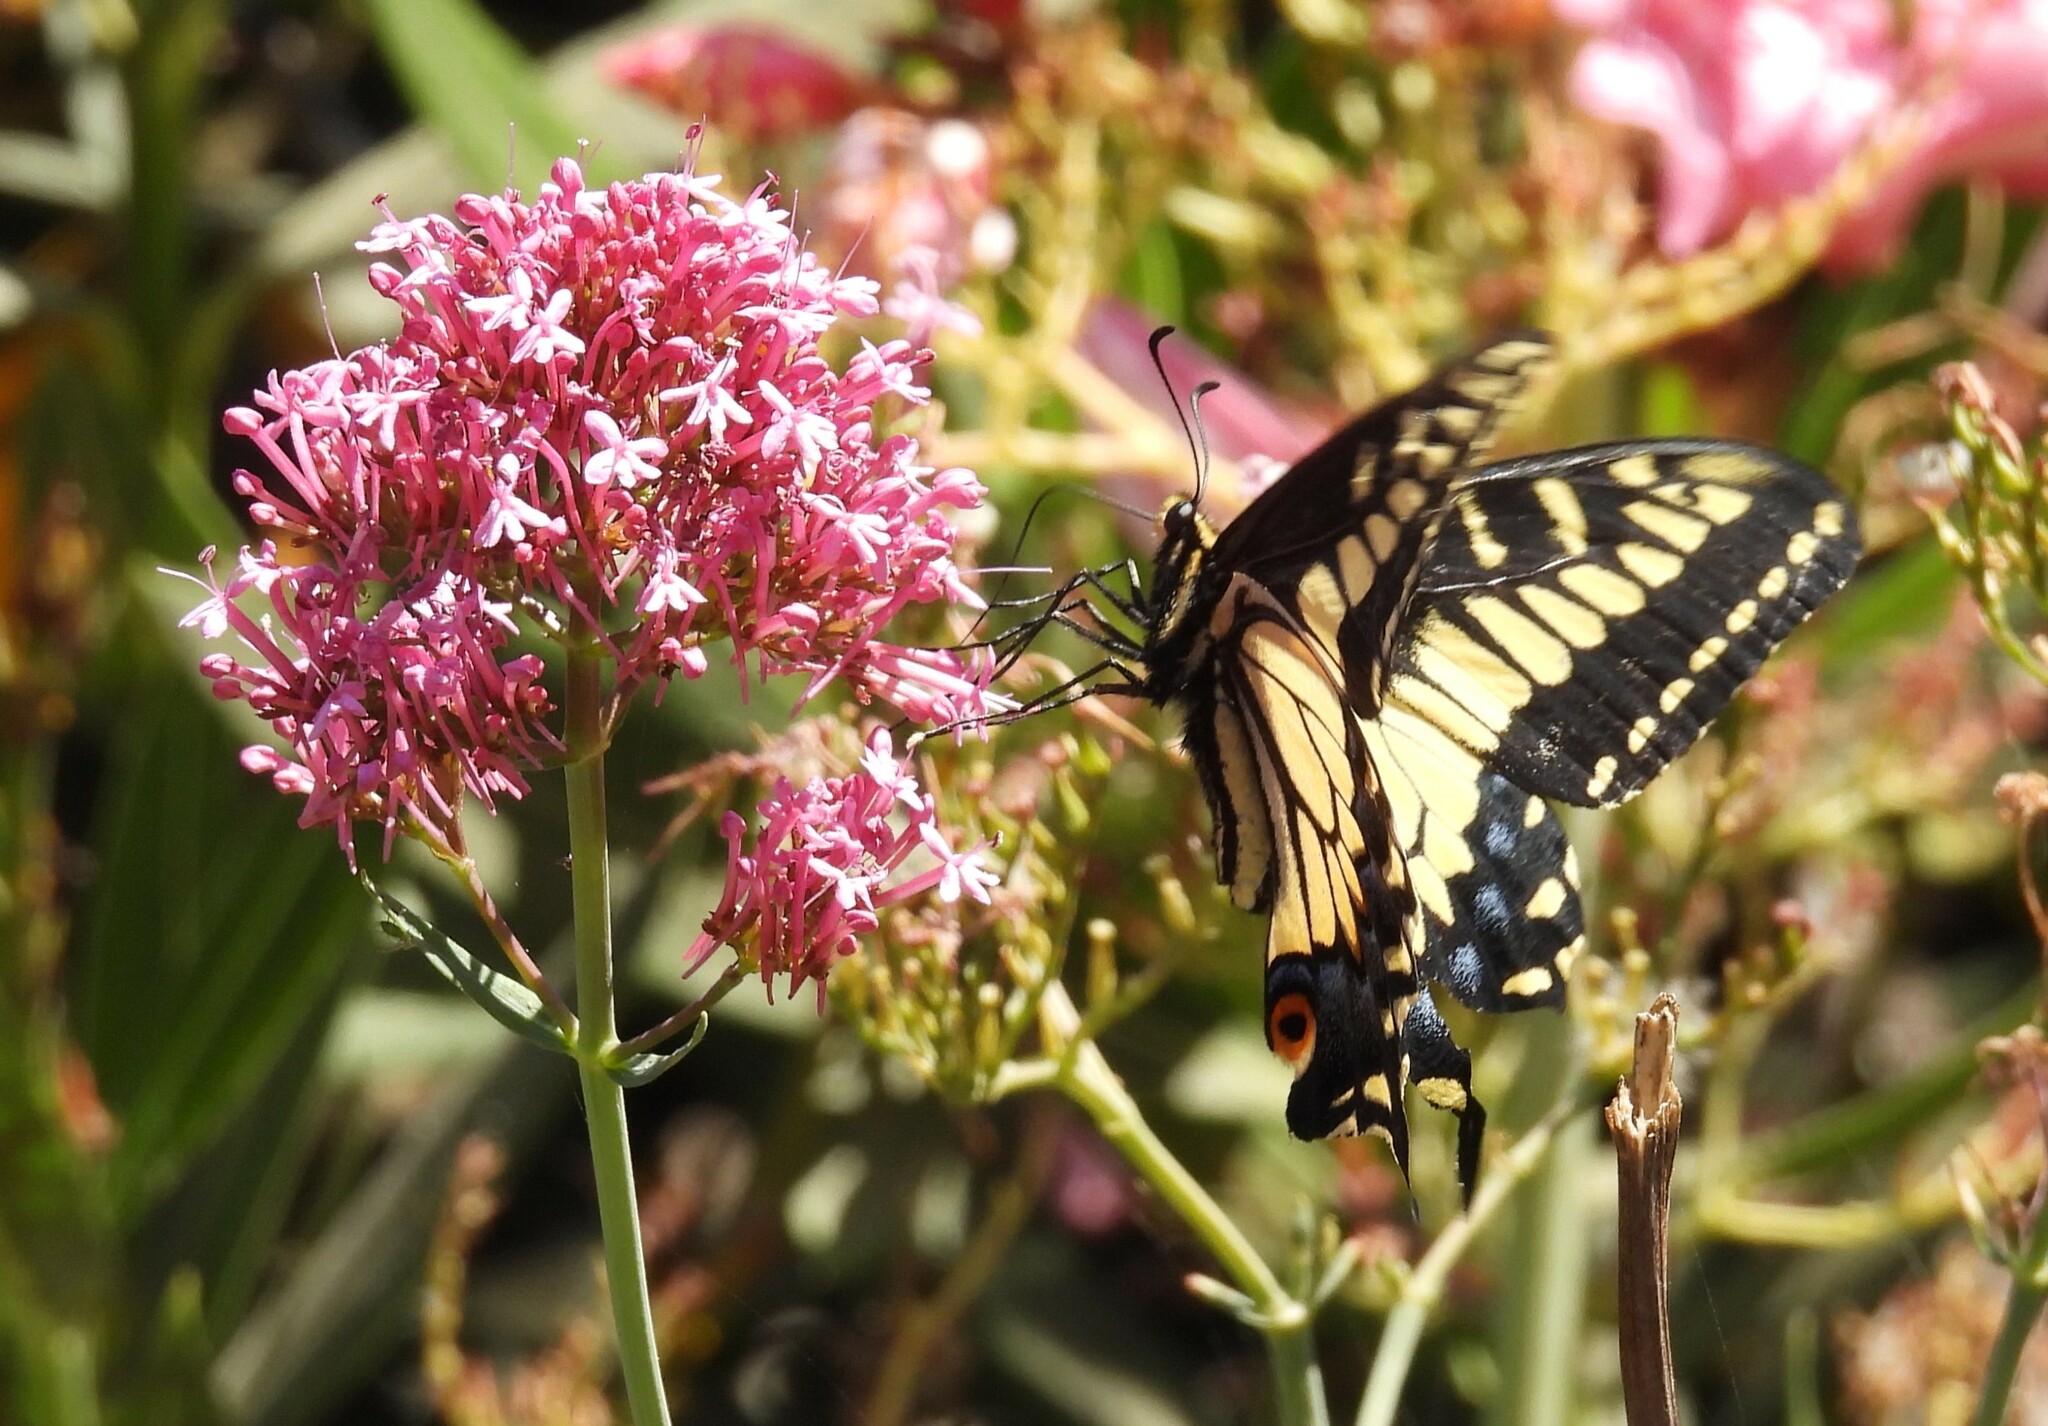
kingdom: Animalia
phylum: Arthropoda
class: Insecta
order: Lepidoptera
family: Papilionidae
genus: Papilio
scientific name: Papilio zelicaon
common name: Anise swallowtail
